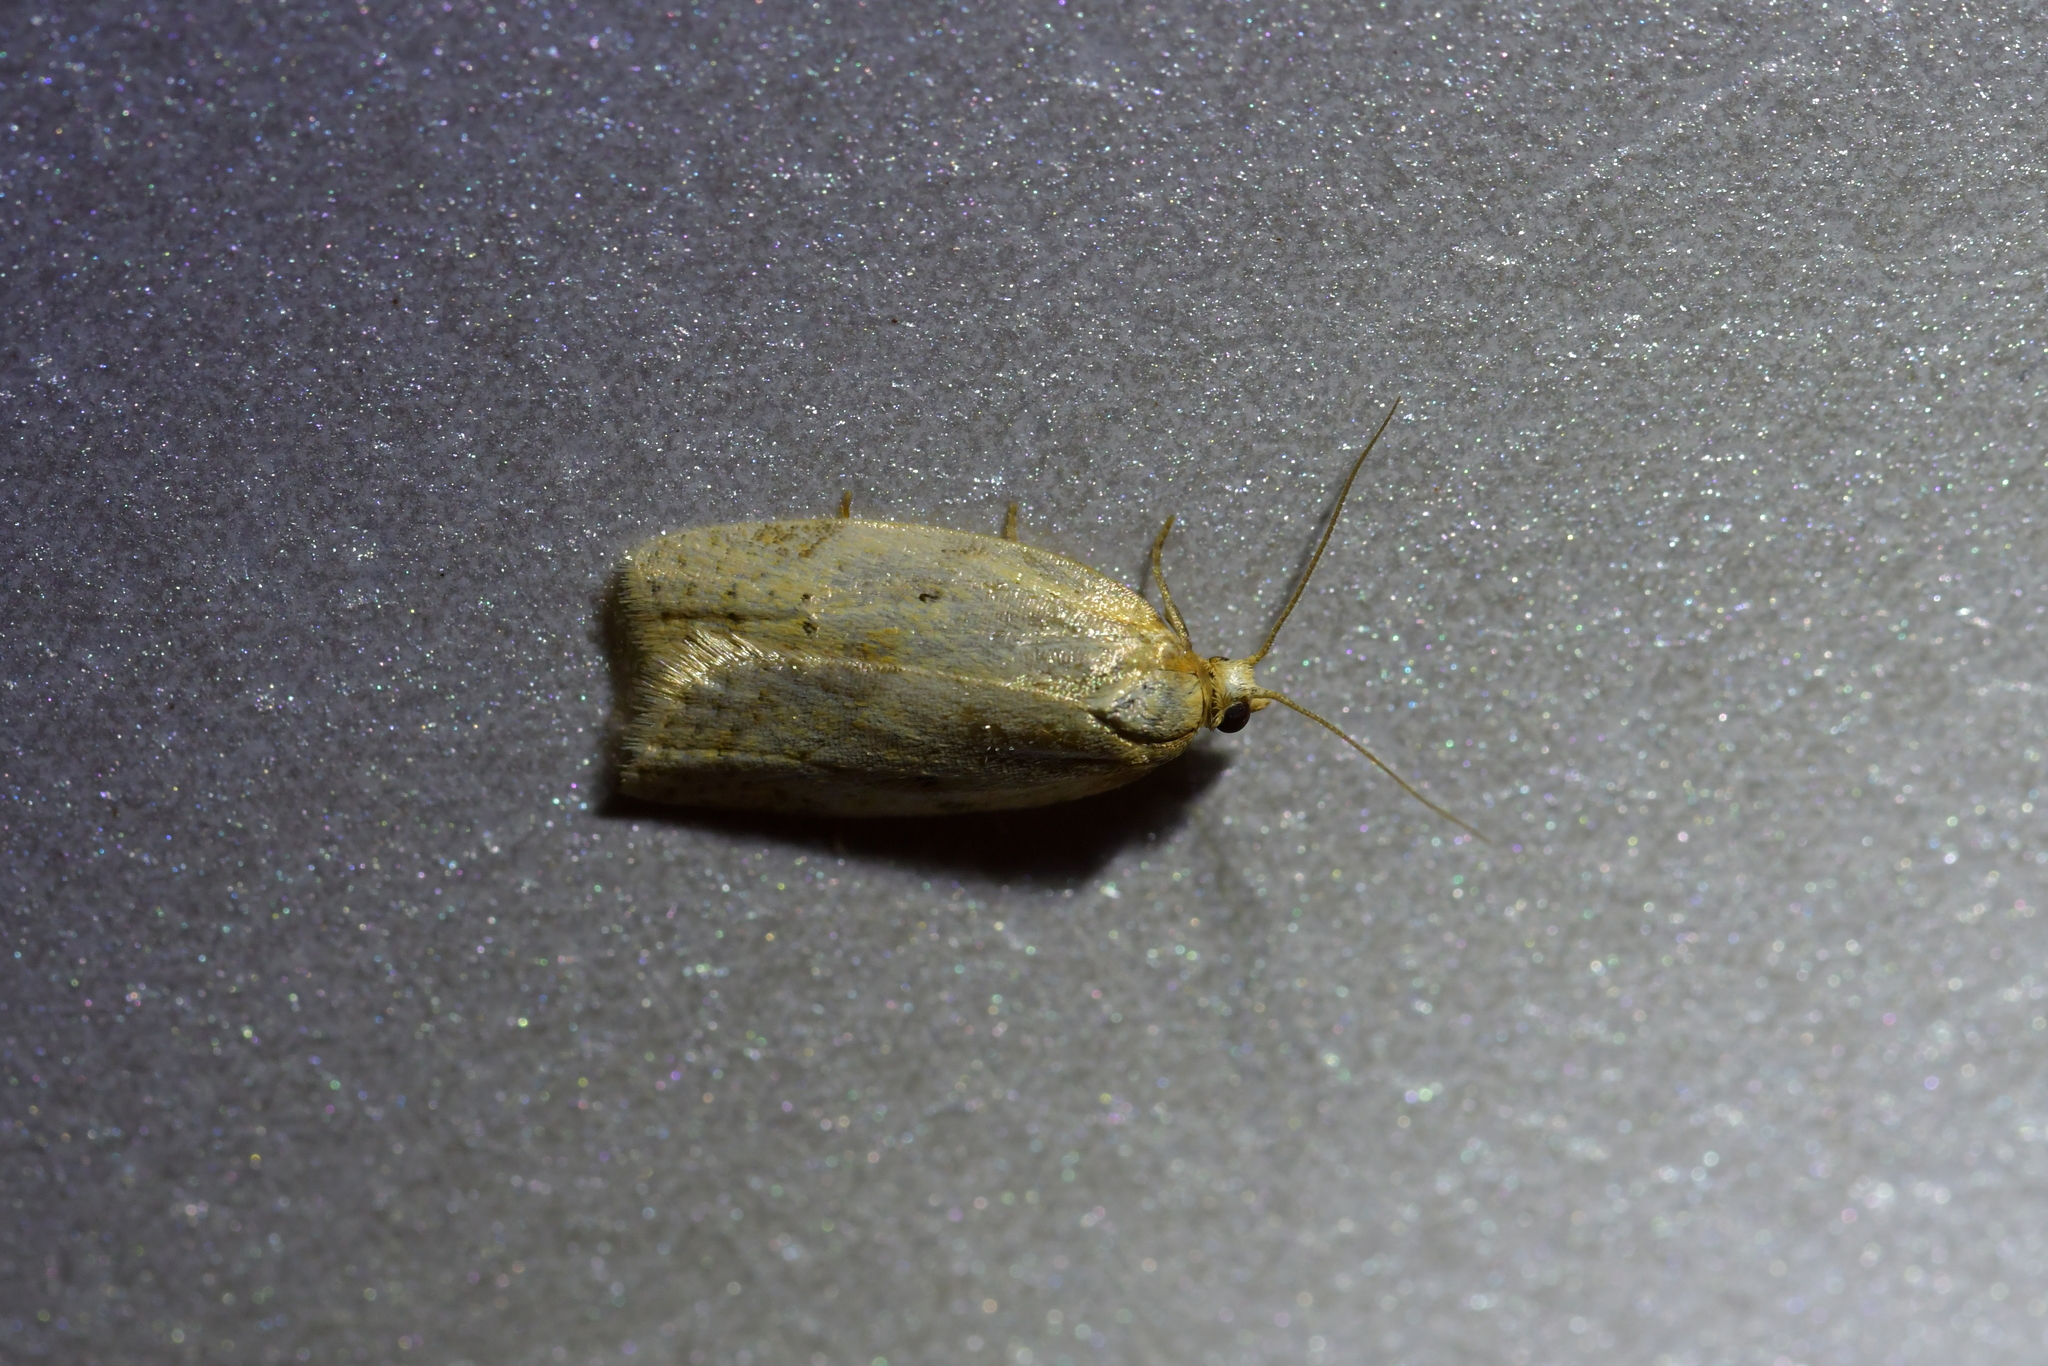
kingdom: Animalia
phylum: Arthropoda
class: Insecta
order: Lepidoptera
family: Tortricidae
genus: Clepsis
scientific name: Clepsis
